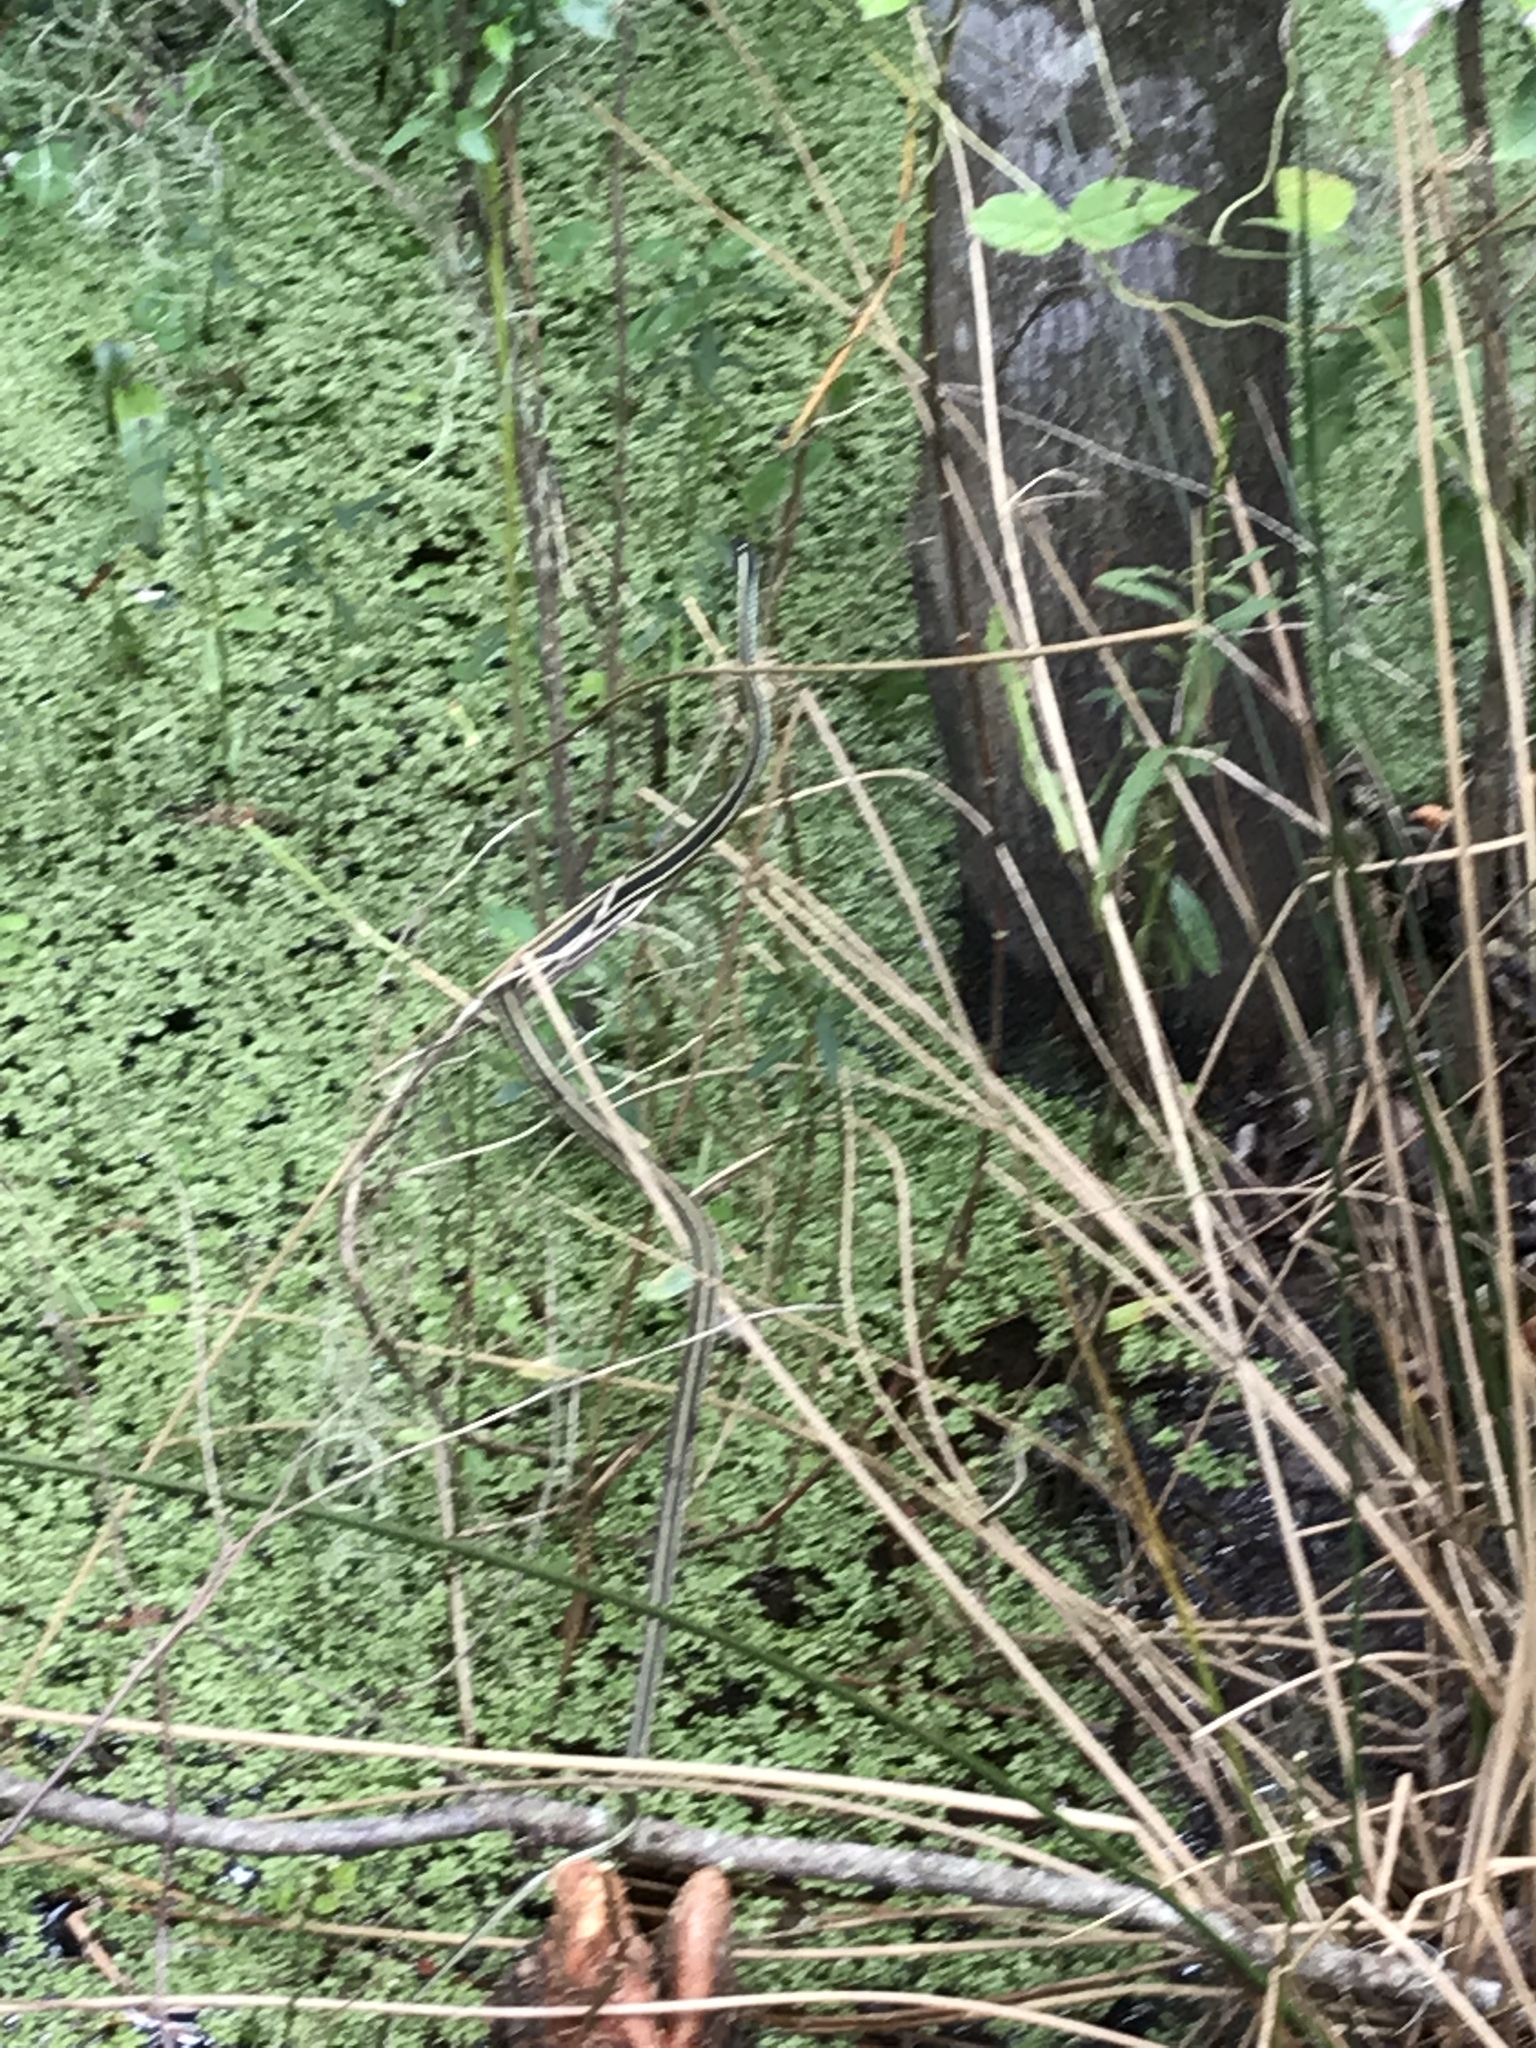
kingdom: Animalia
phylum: Chordata
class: Squamata
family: Colubridae
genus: Thamnophis
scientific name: Thamnophis proximus
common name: Western ribbon snake
